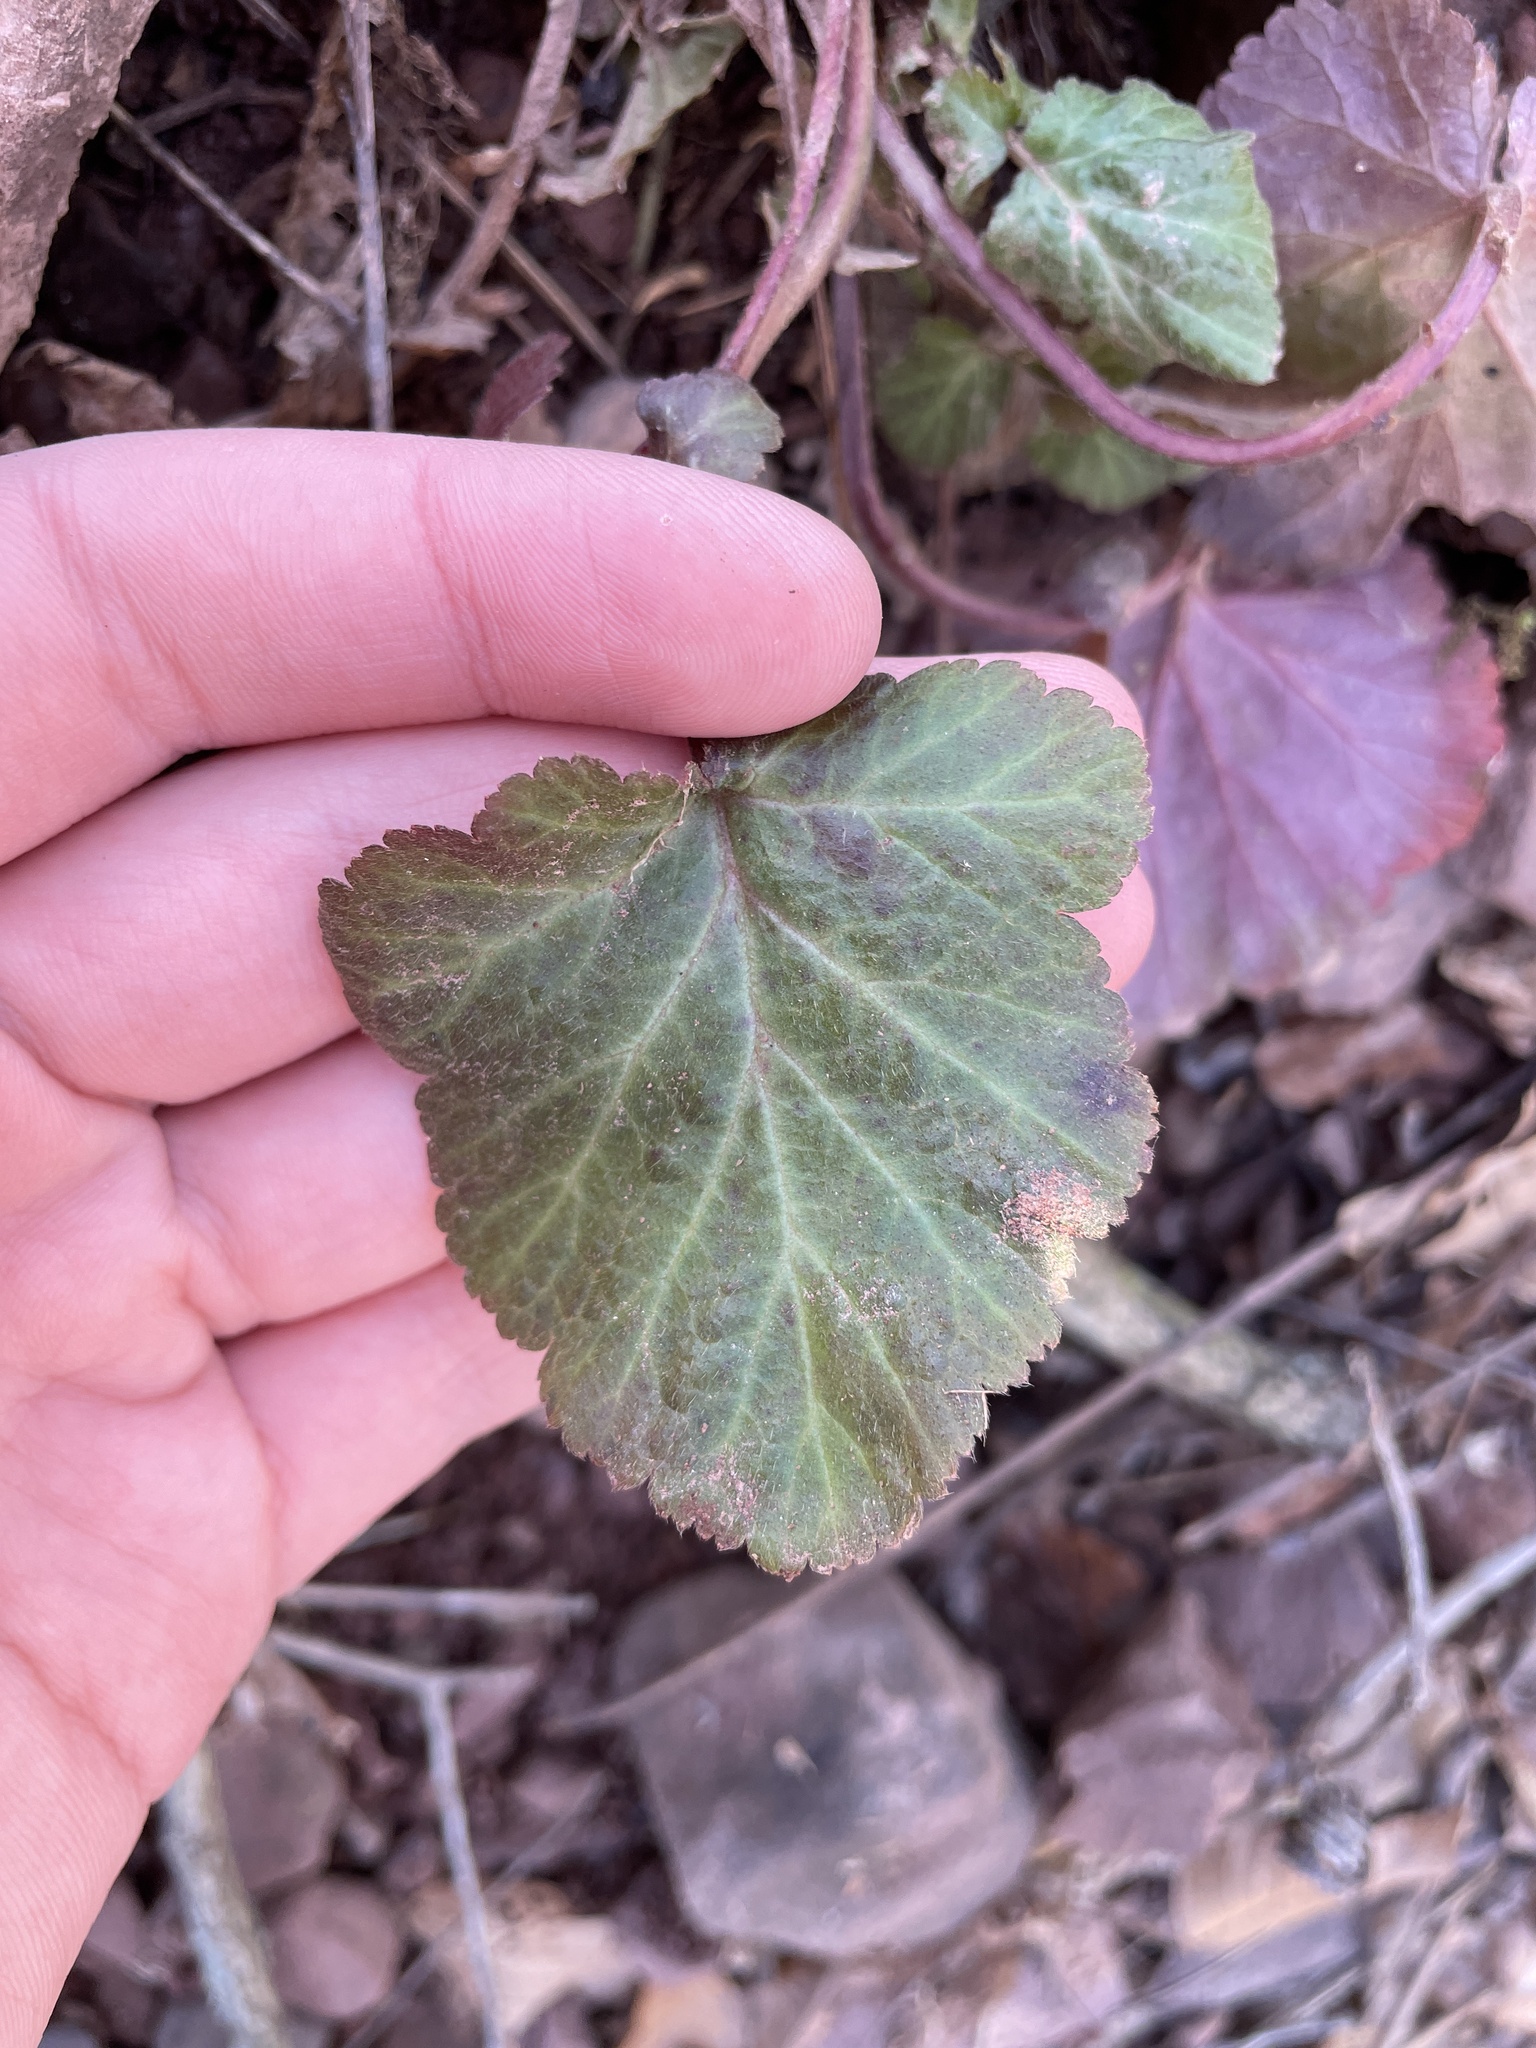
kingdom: Plantae
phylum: Tracheophyta
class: Magnoliopsida
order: Rosales
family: Rosaceae
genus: Geum
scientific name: Geum canadense
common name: White avens
